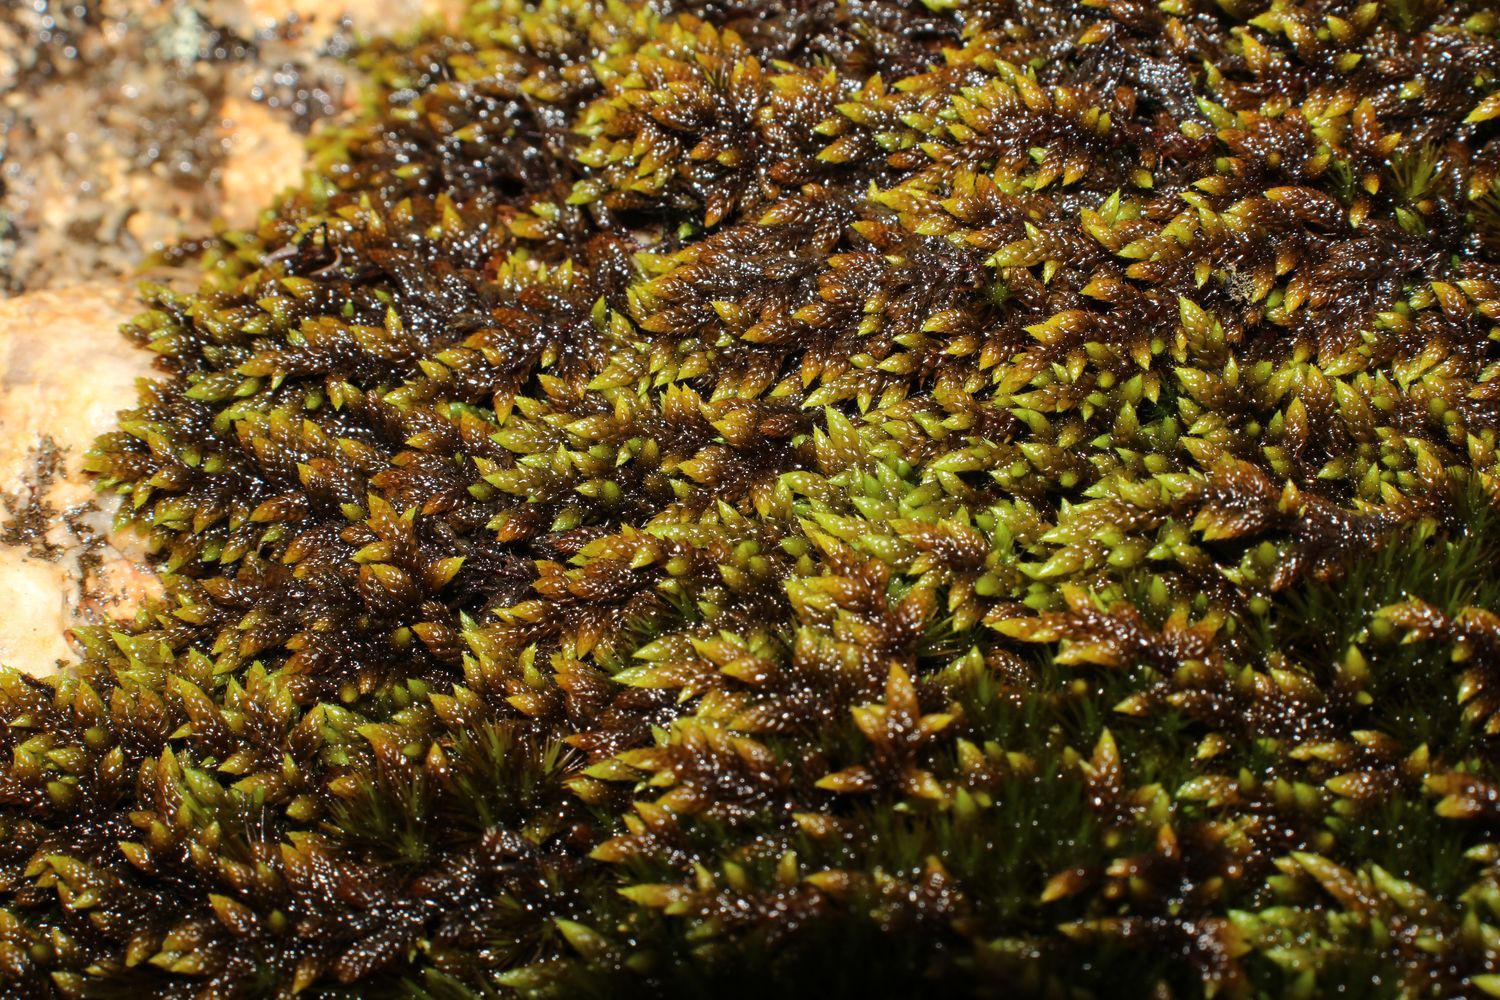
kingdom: Plantae
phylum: Bryophyta
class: Bryopsida
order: Hedwigiales
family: Hedwigiaceae
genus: Rhacocarpus
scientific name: Rhacocarpus purpurascens
